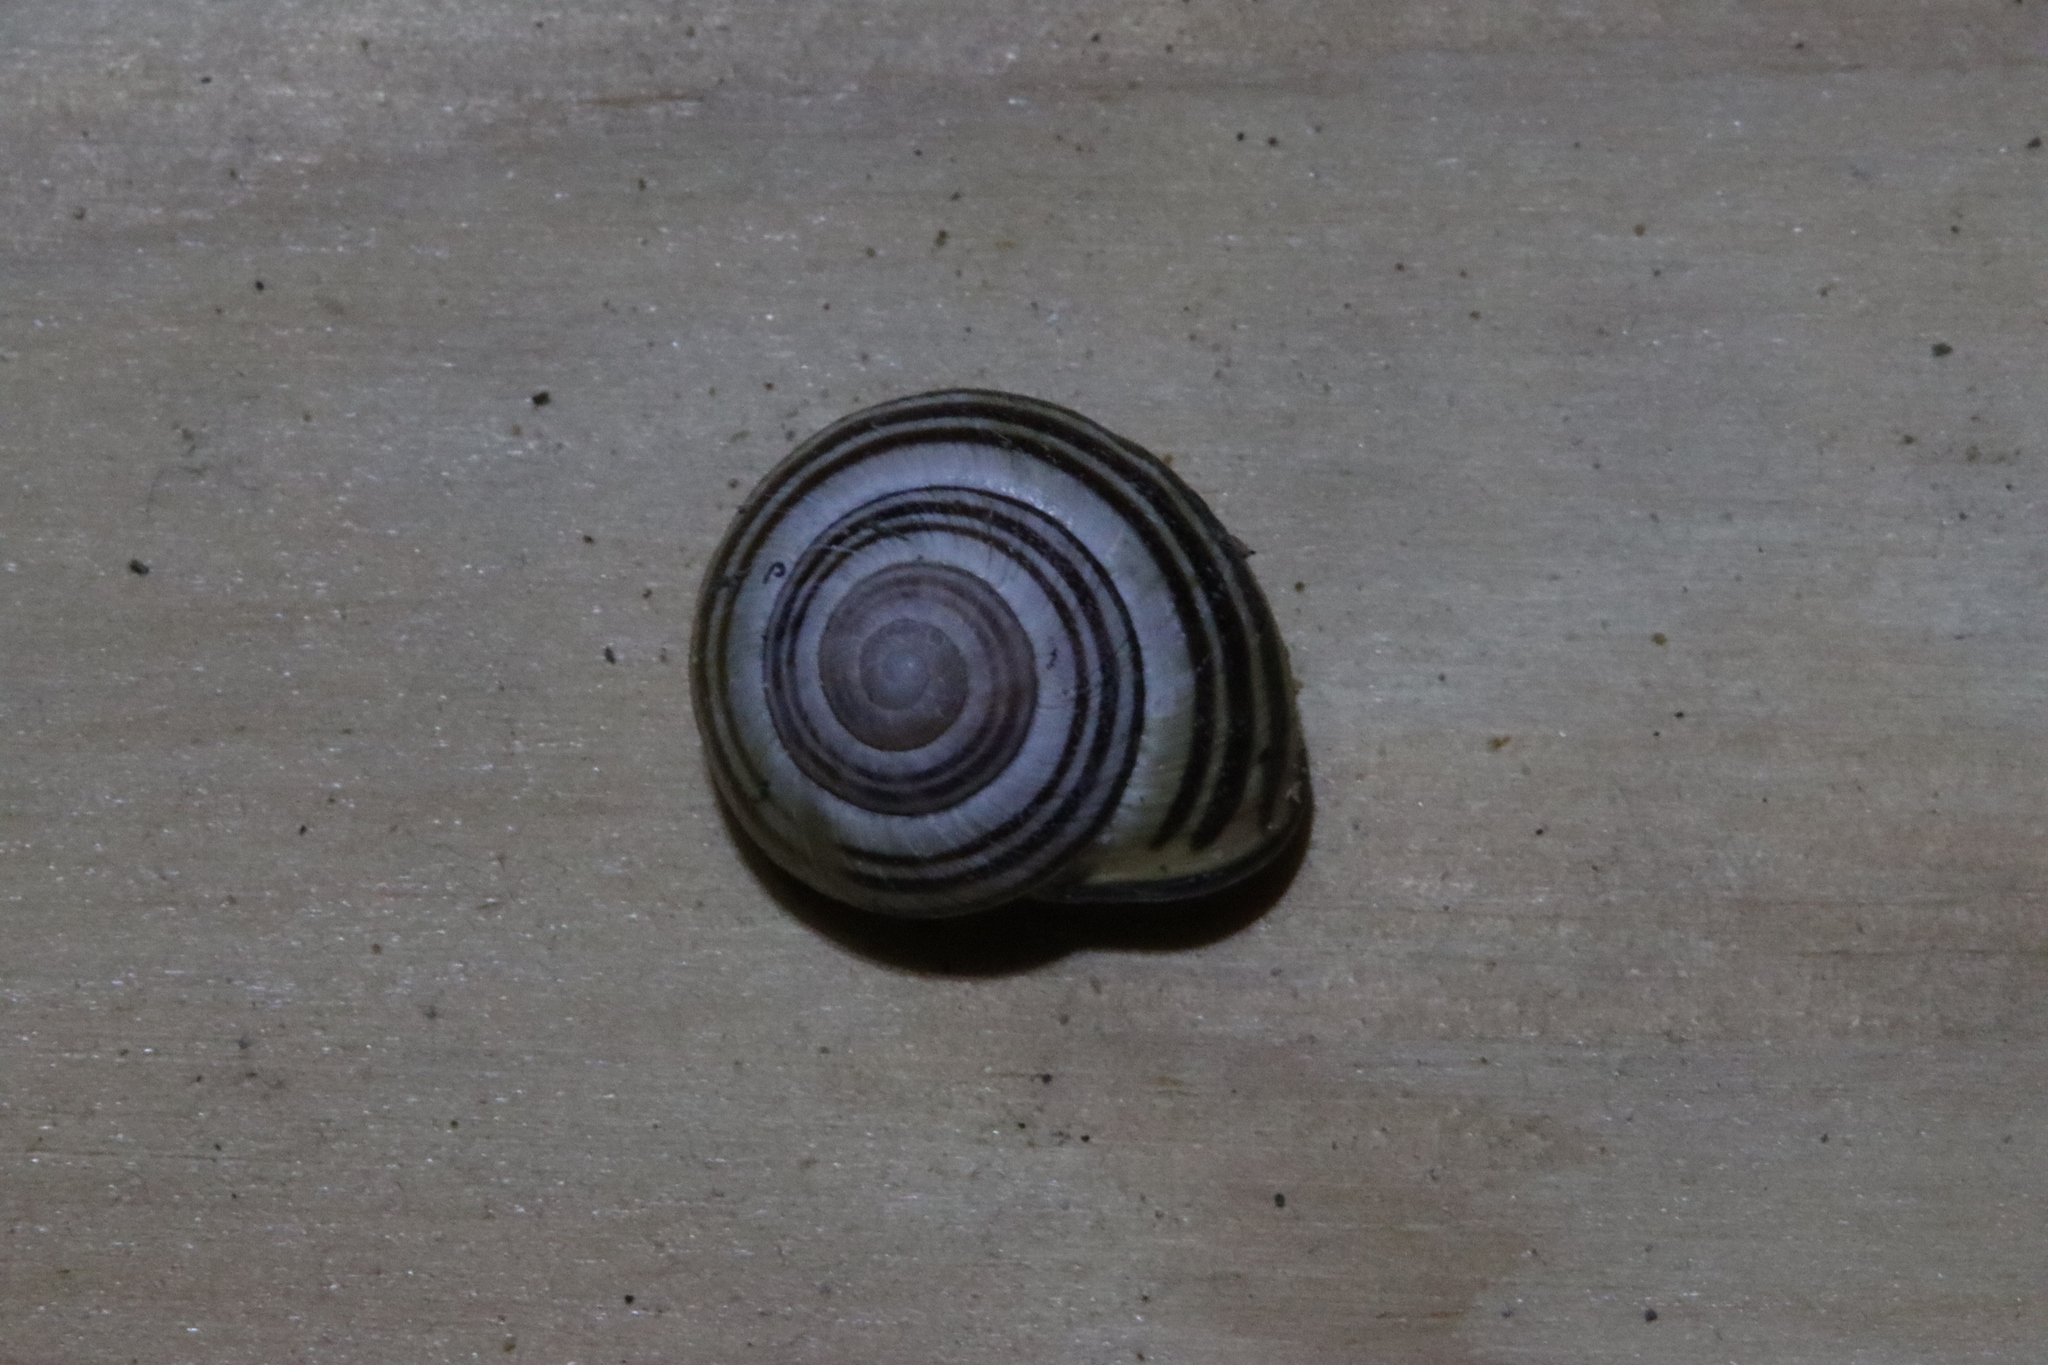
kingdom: Animalia
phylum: Mollusca
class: Gastropoda
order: Stylommatophora
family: Helicidae
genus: Cepaea
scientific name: Cepaea nemoralis
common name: Grovesnail
